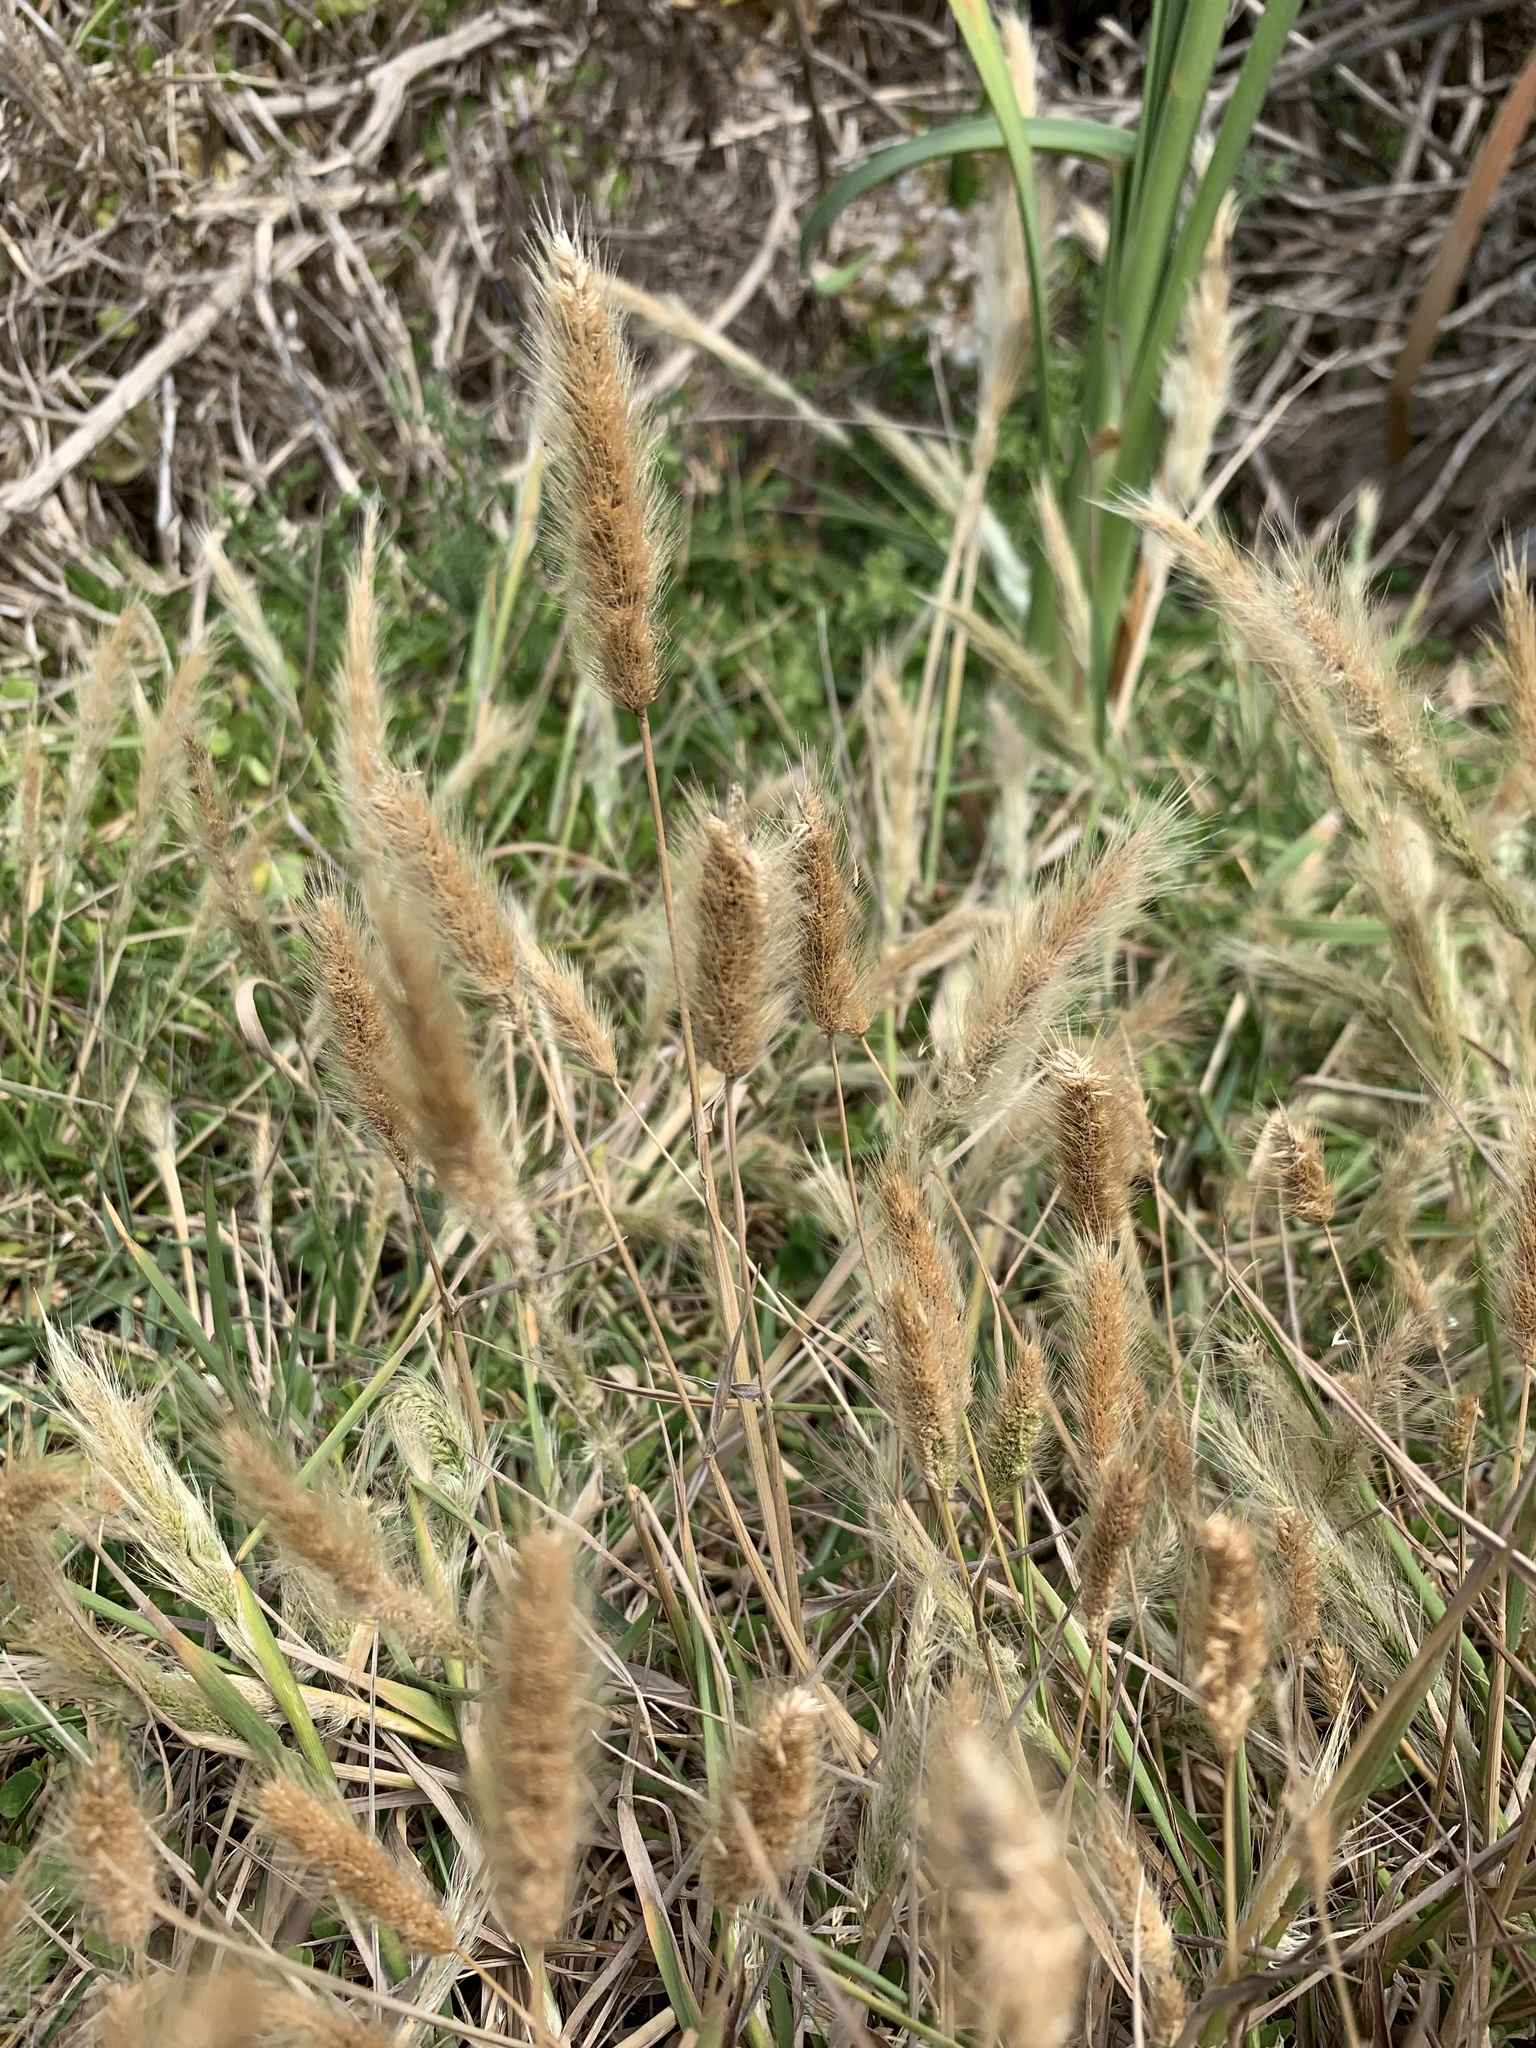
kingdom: Plantae
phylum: Tracheophyta
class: Liliopsida
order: Poales
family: Poaceae
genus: Polypogon
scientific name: Polypogon monspeliensis
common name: Annual rabbitsfoot grass
